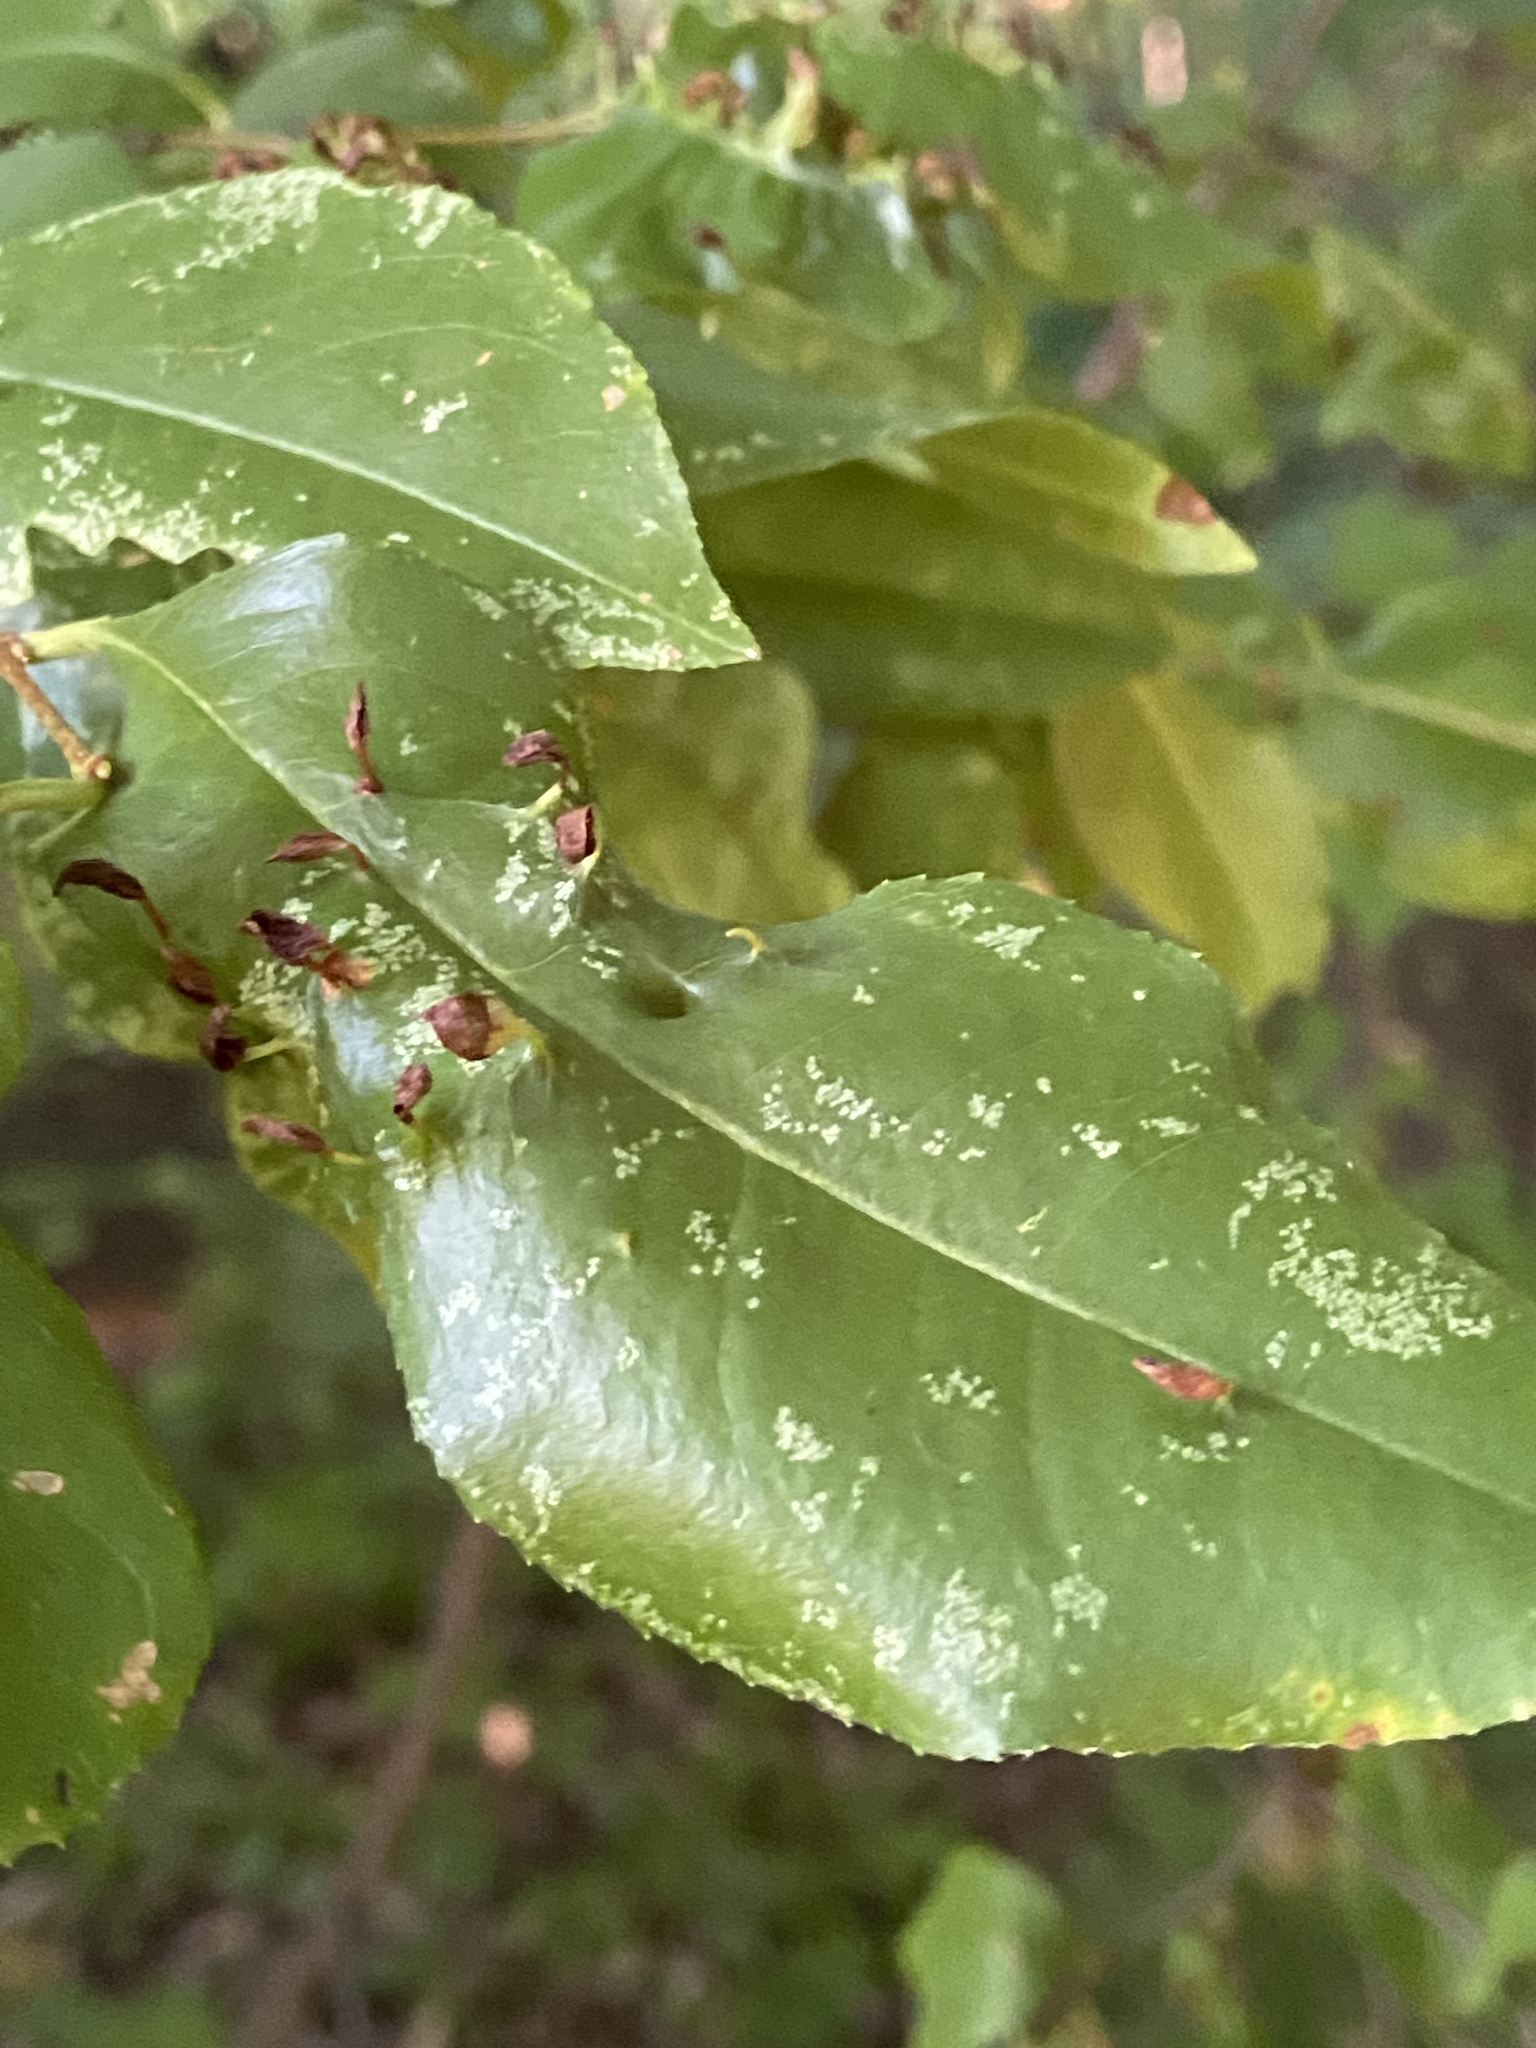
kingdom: Animalia
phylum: Arthropoda
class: Arachnida
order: Trombidiformes
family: Eriophyidae
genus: Eriophyes
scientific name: Eriophyes
